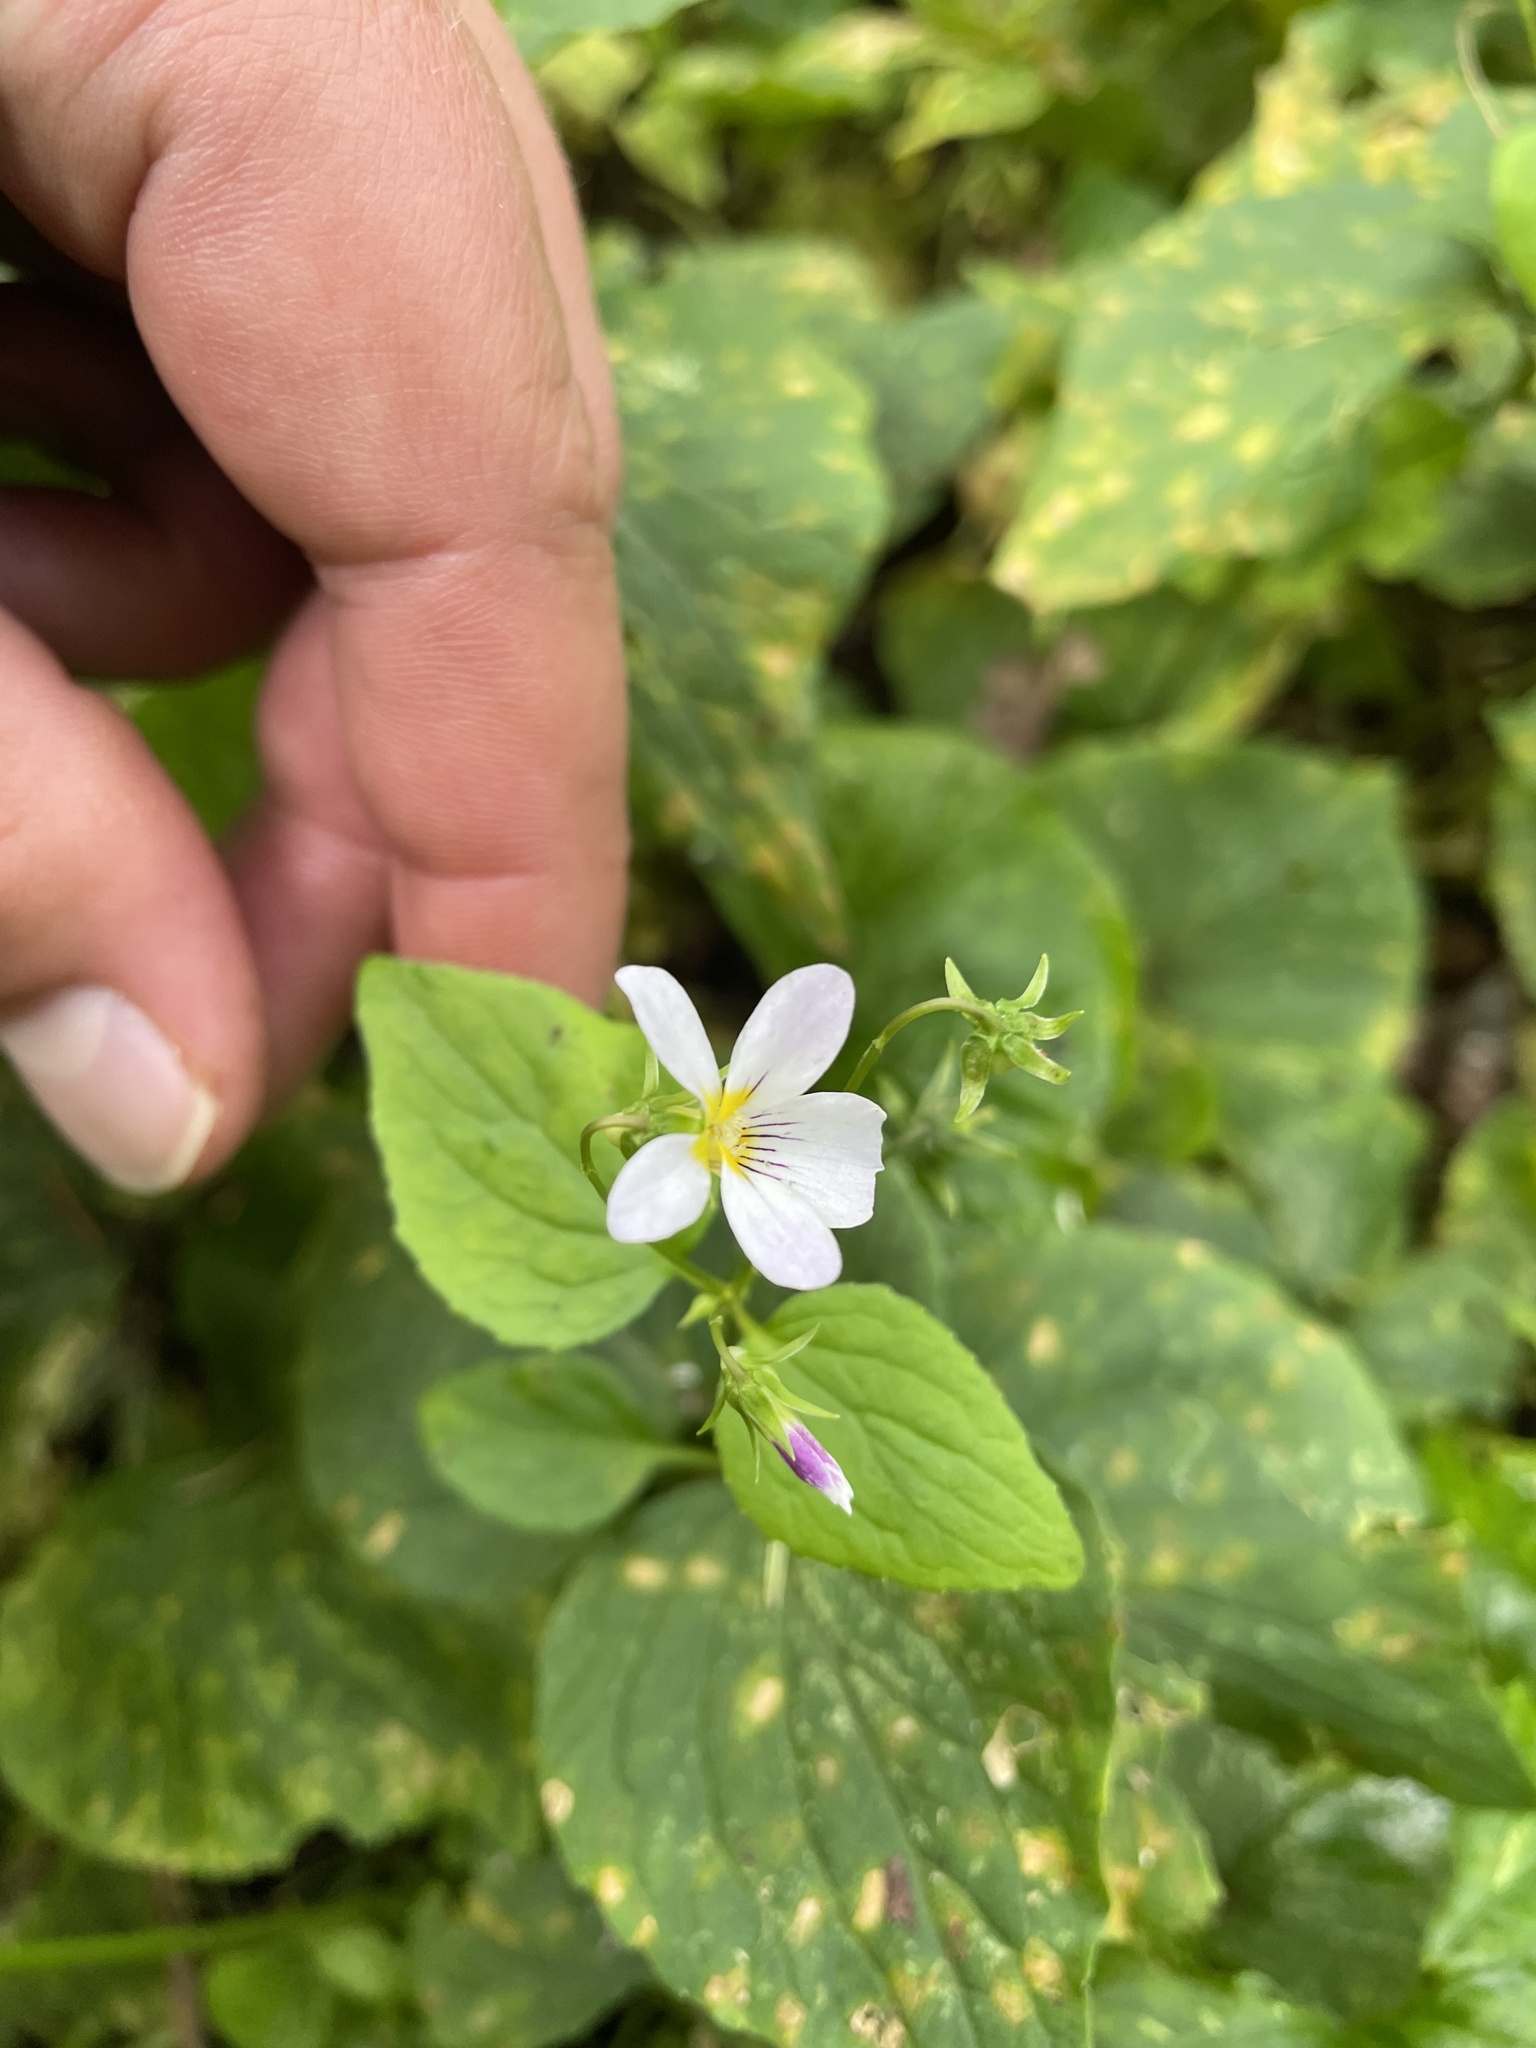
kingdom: Plantae
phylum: Tracheophyta
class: Magnoliopsida
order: Malpighiales
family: Violaceae
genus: Viola
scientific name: Viola canadensis
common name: Canada violet
